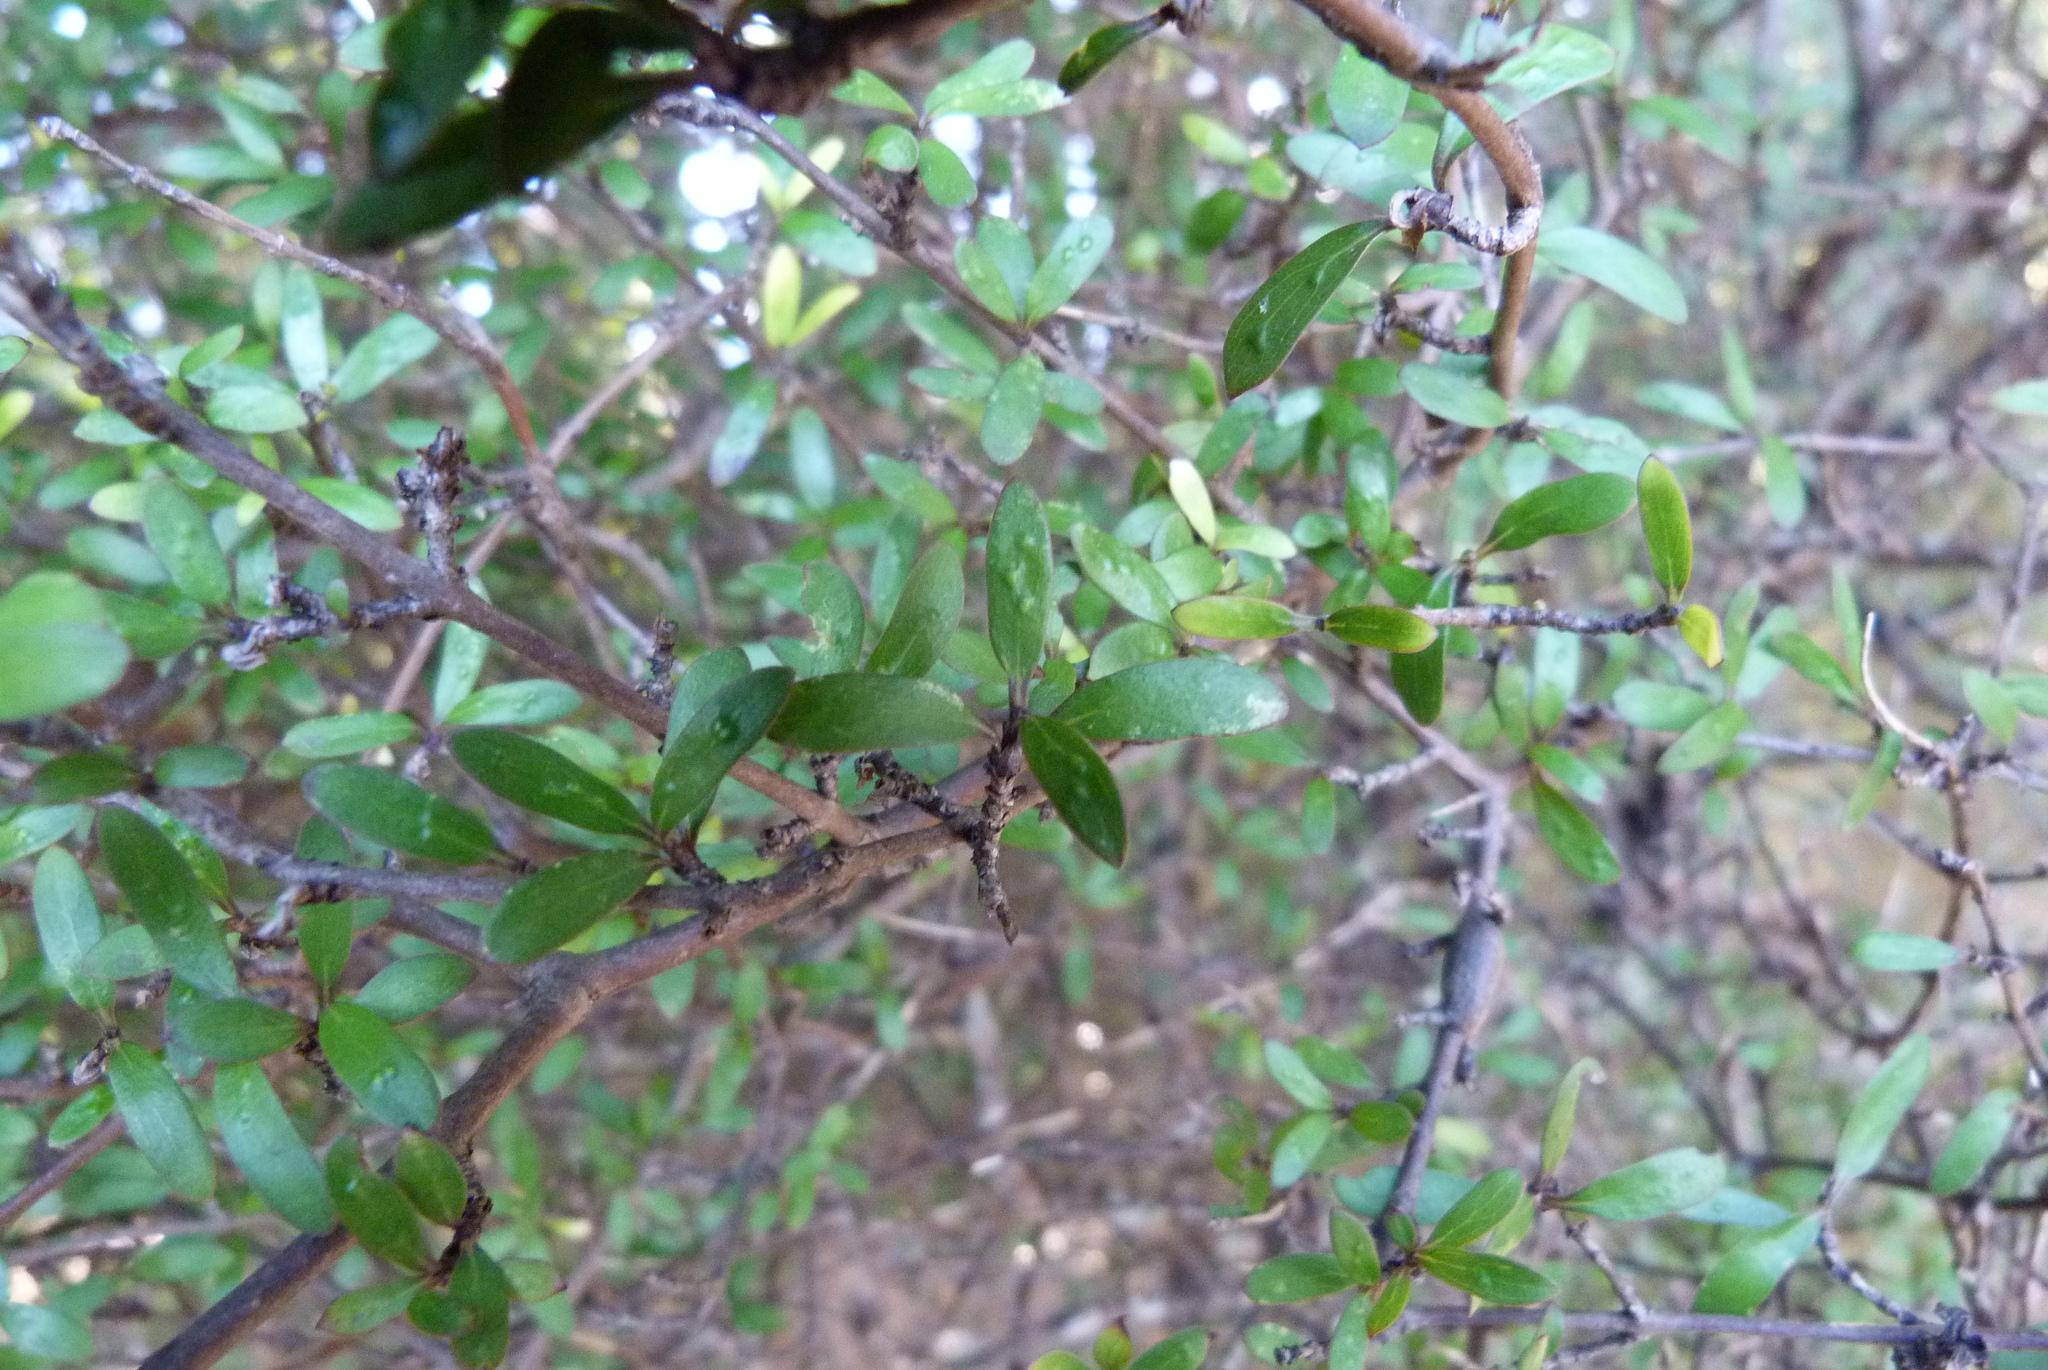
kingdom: Plantae
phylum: Tracheophyta
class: Magnoliopsida
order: Gentianales
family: Rubiaceae
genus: Coprosma
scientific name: Coprosma propinqua
